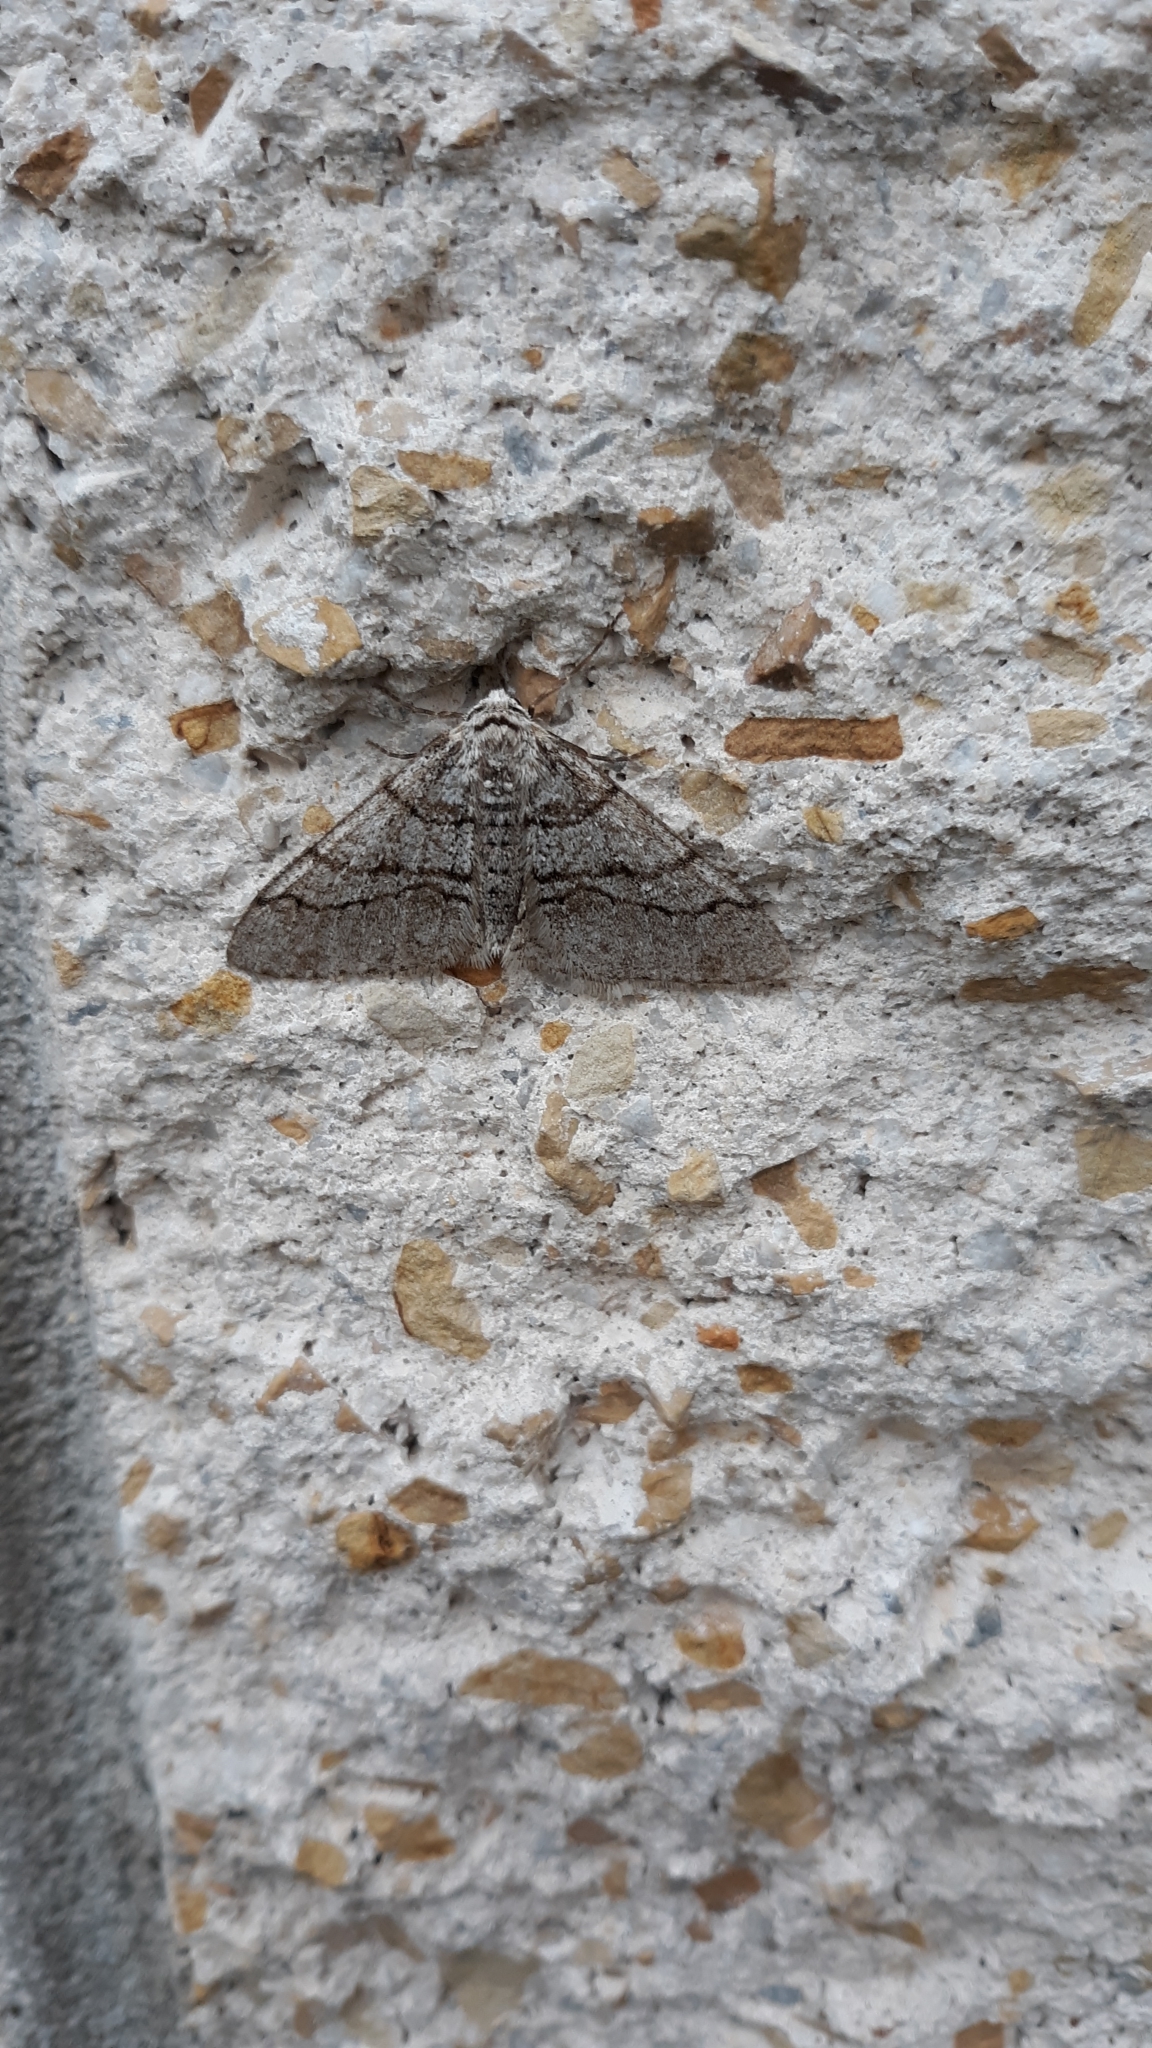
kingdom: Animalia
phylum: Arthropoda
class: Insecta
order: Lepidoptera
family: Geometridae
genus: Phigalia
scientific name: Phigalia titea
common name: Spiny looper
